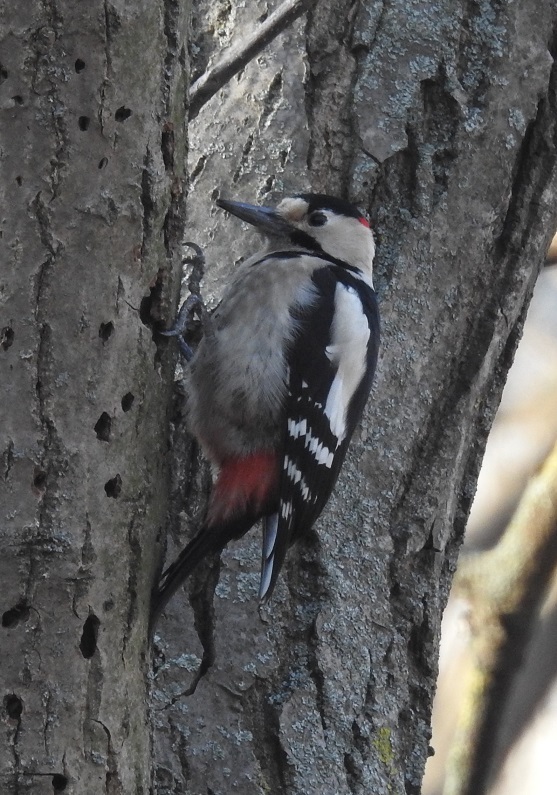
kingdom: Animalia
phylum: Chordata
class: Aves
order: Piciformes
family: Picidae
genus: Dendrocopos
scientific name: Dendrocopos syriacus
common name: Syrian woodpecker
